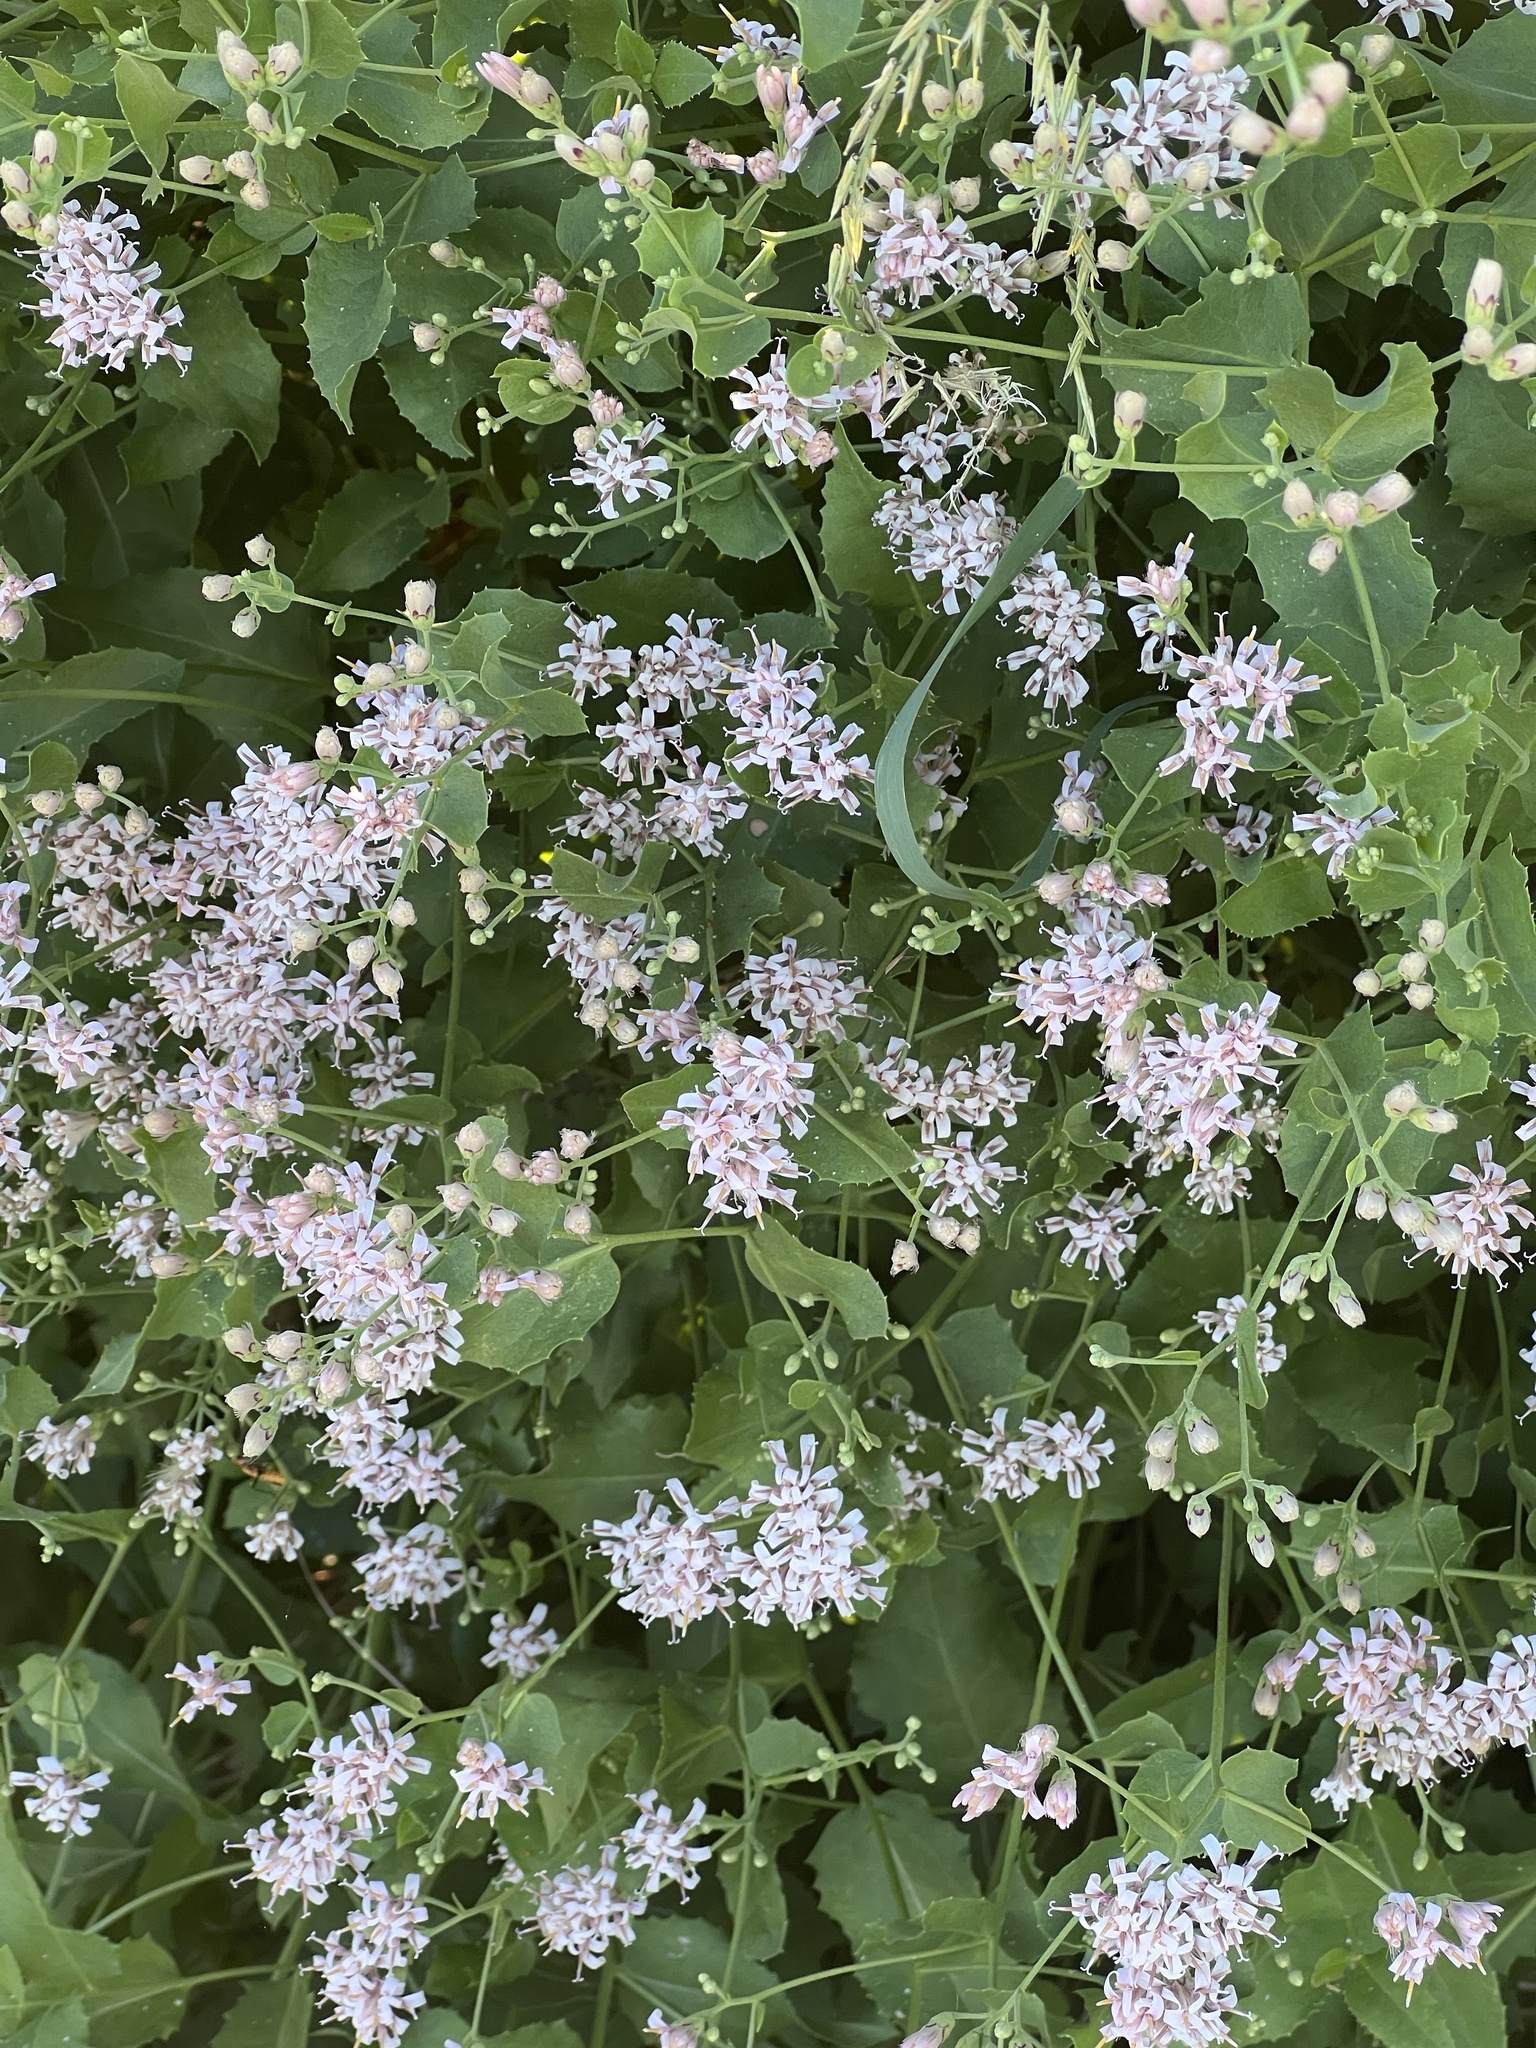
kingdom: Plantae
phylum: Tracheophyta
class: Magnoliopsida
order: Asterales
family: Asteraceae
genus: Acourtia
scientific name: Acourtia wrightii
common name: Brownfoot
